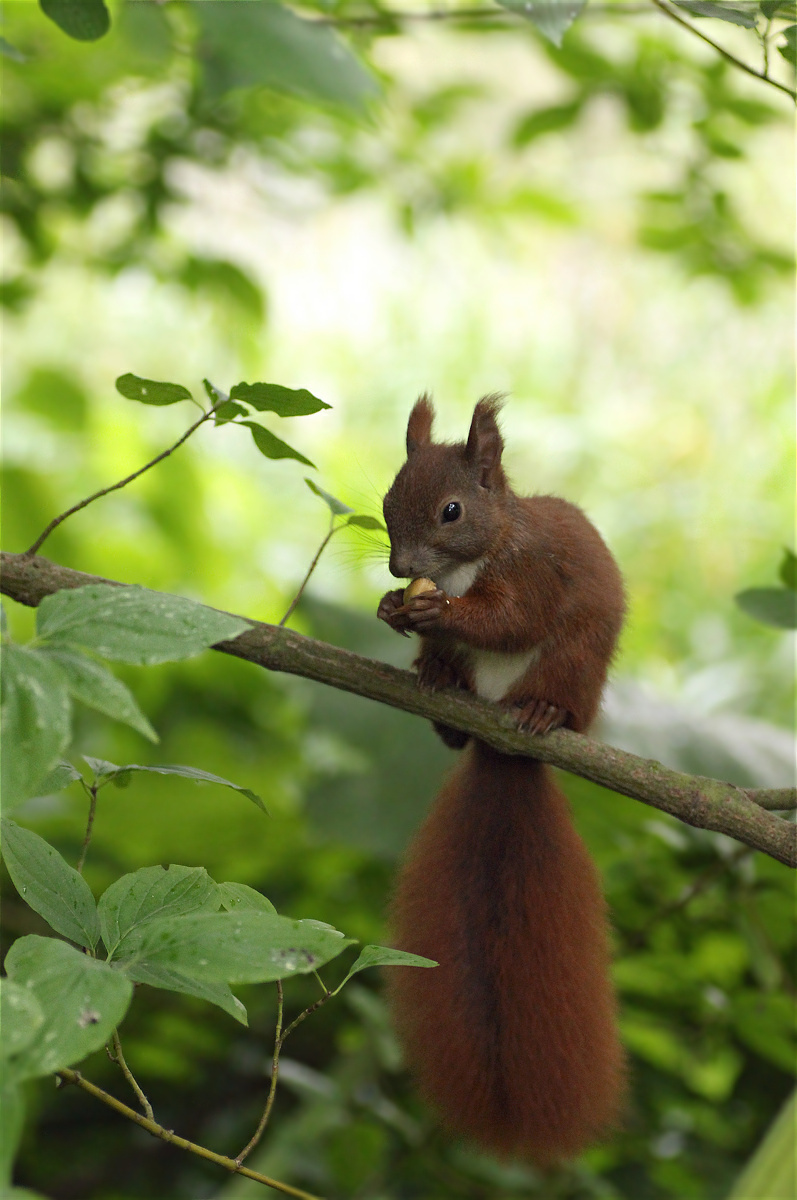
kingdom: Animalia
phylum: Chordata
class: Mammalia
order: Rodentia
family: Sciuridae
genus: Sciurus
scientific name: Sciurus vulgaris
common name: Eurasian red squirrel
